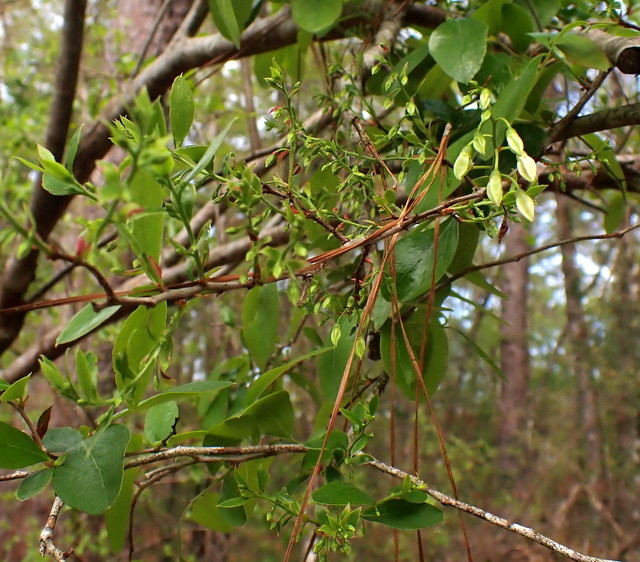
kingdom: Plantae
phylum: Tracheophyta
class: Magnoliopsida
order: Ericales
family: Ericaceae
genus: Vaccinium
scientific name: Vaccinium arboreum
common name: Farkleberry
